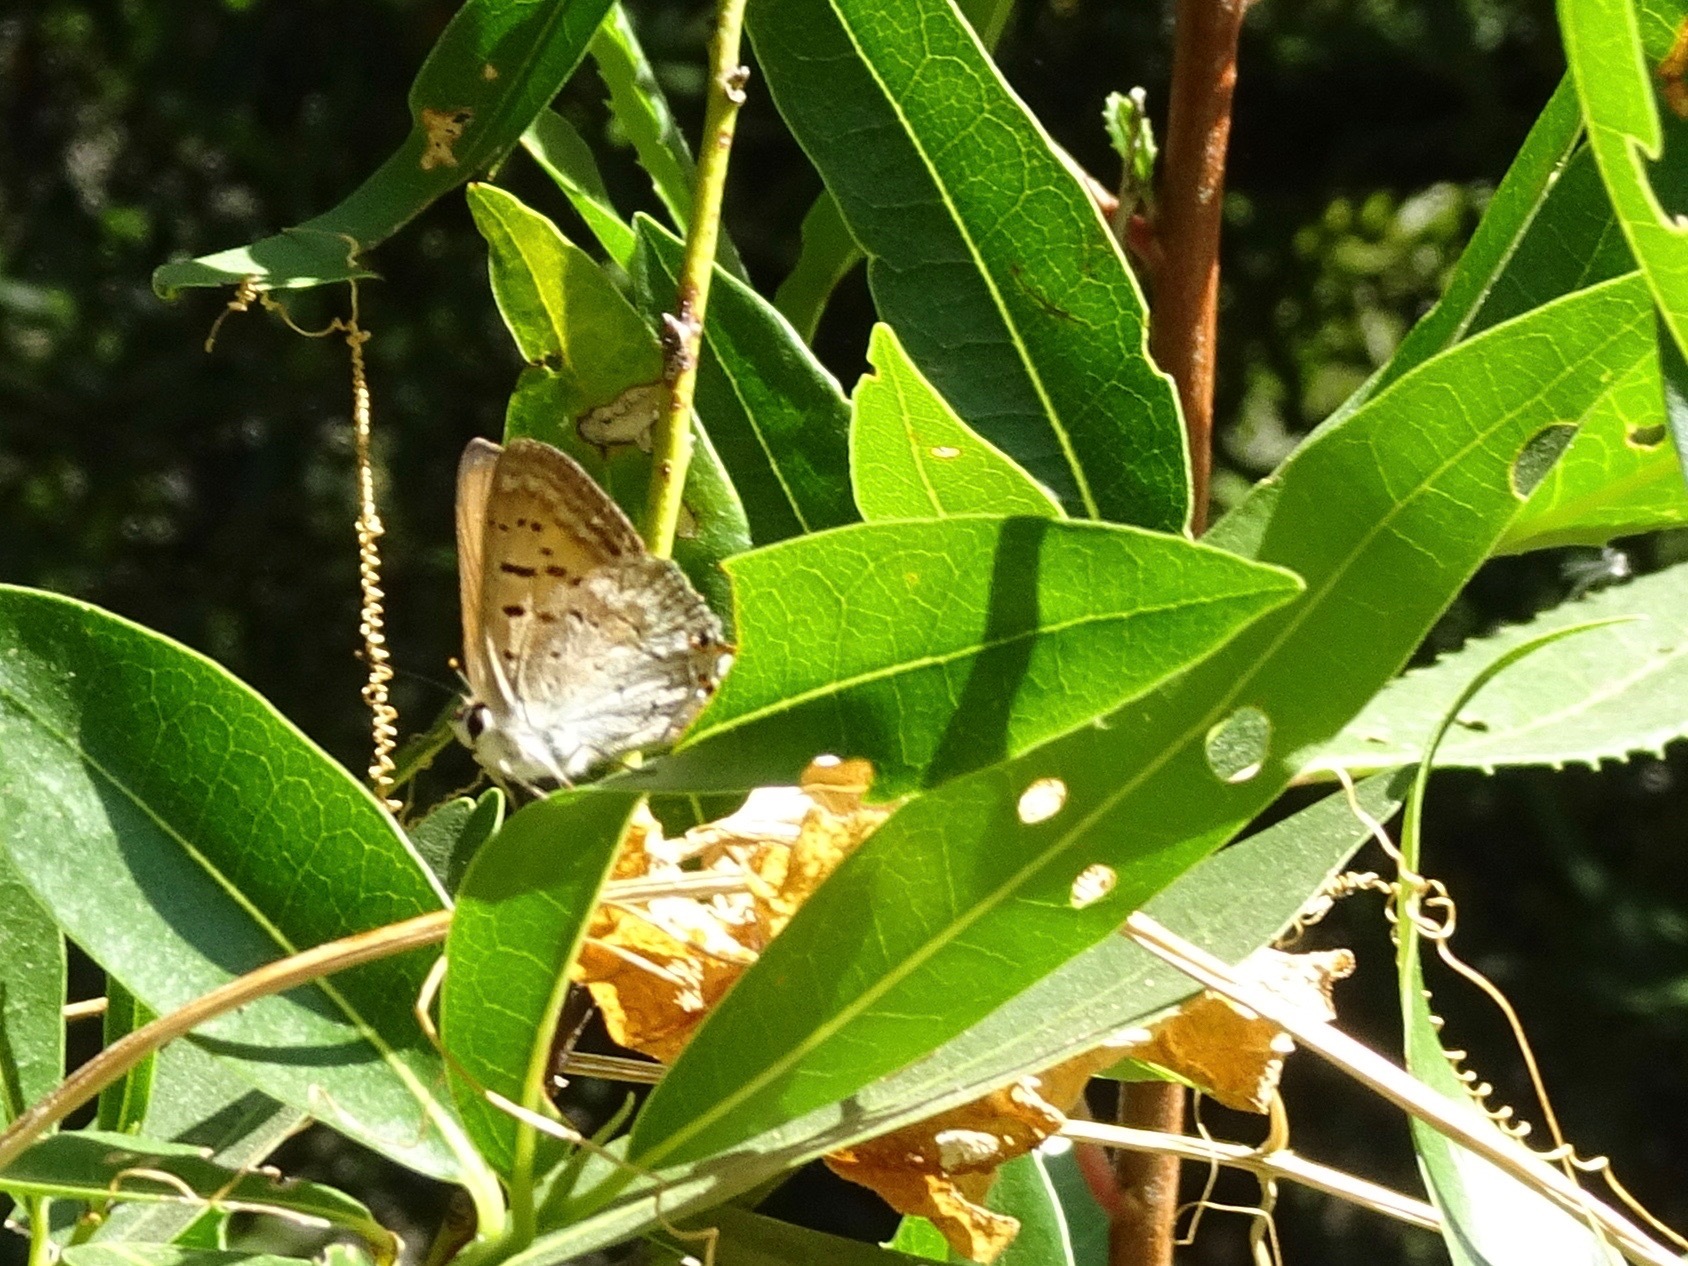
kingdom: Animalia
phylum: Arthropoda
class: Insecta
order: Lepidoptera
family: Lycaenidae
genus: Tharsalea
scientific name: Tharsalea arota
